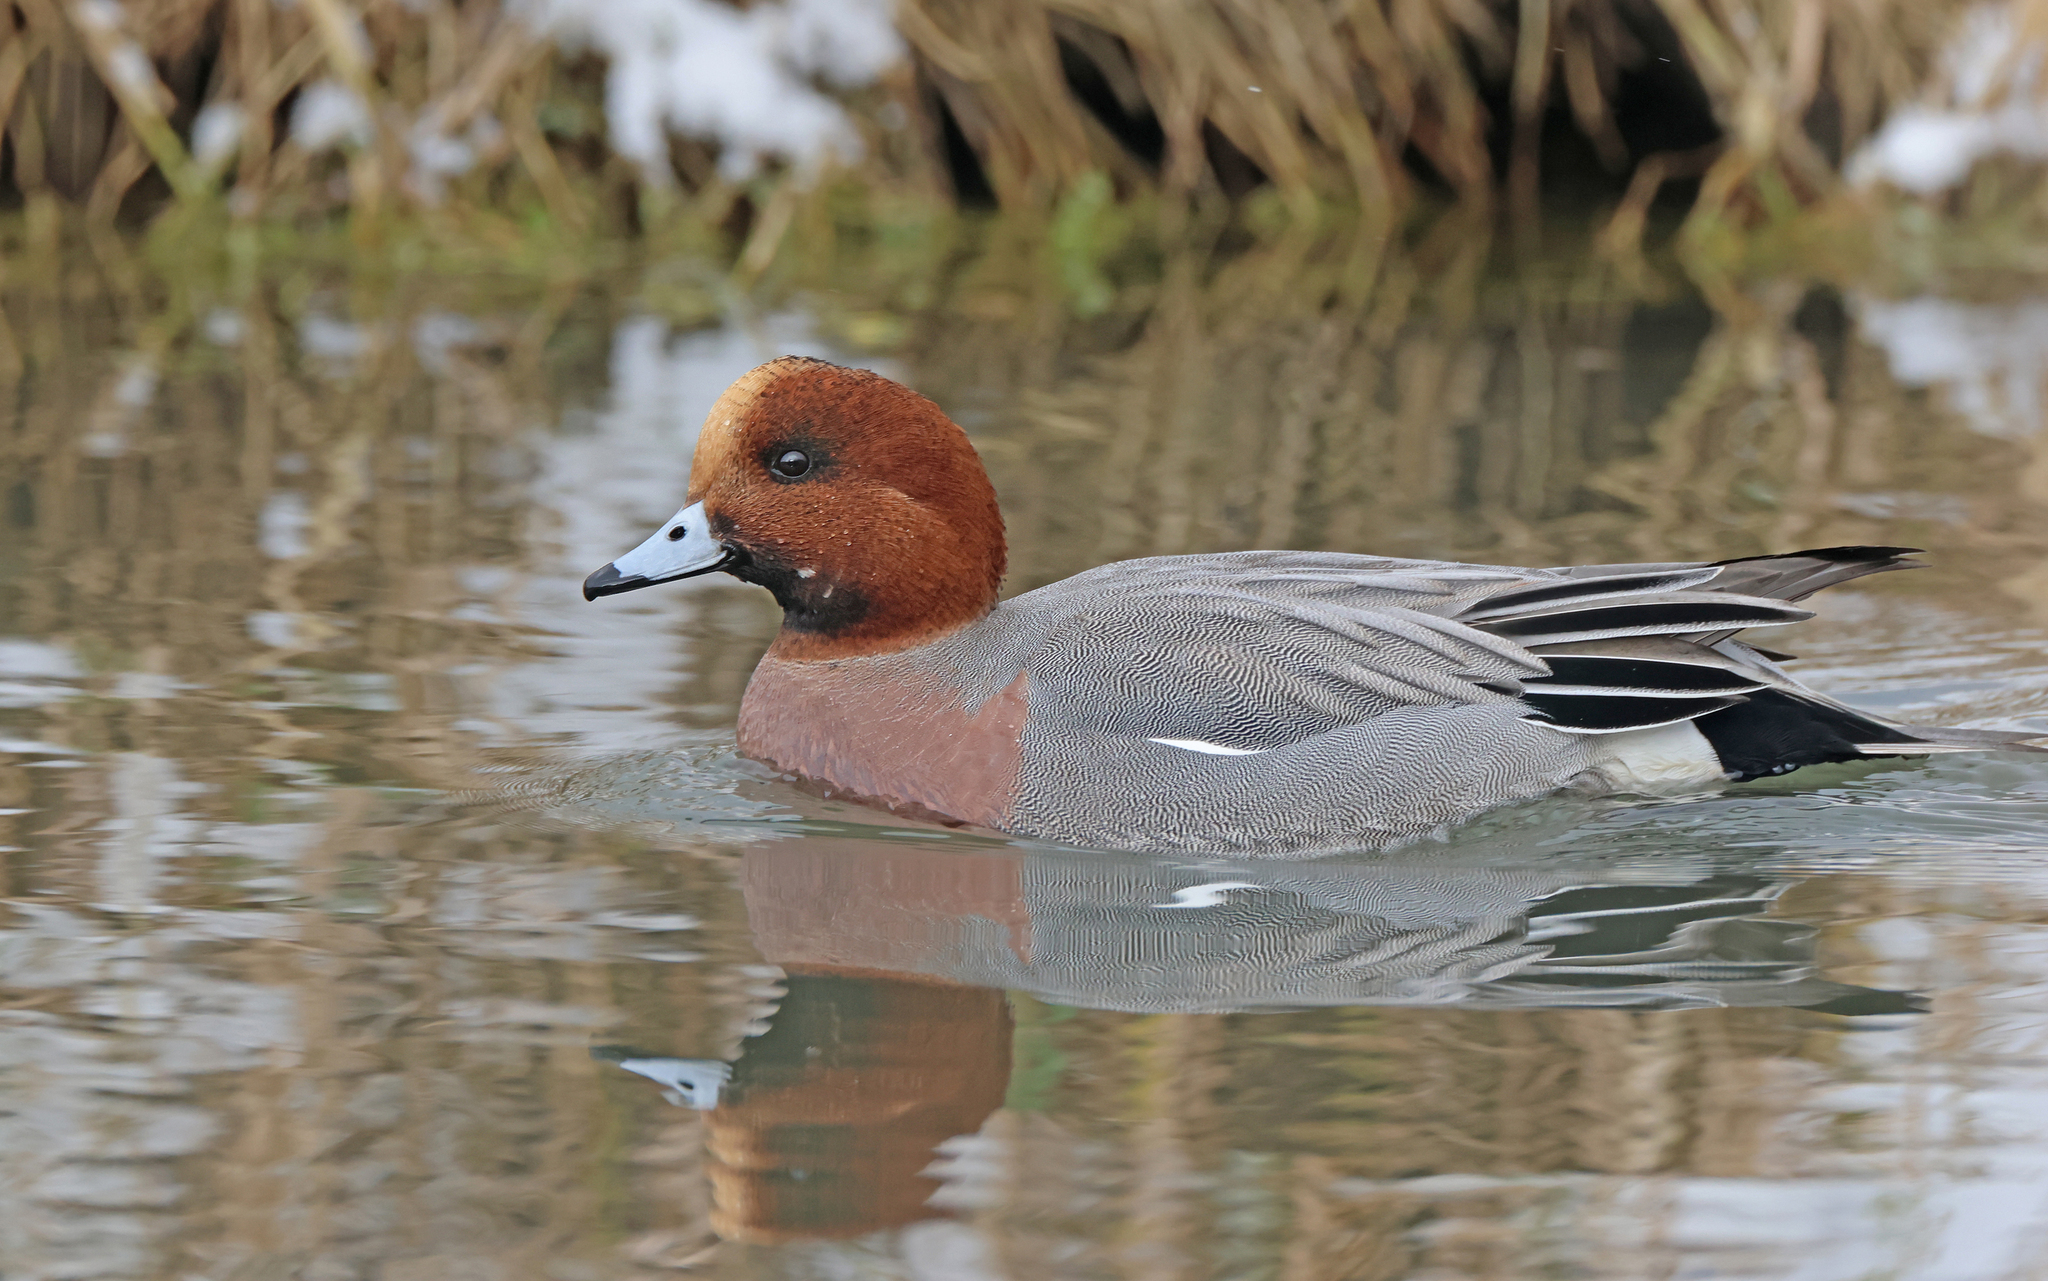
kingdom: Animalia
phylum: Chordata
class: Aves
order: Anseriformes
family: Anatidae
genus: Mareca
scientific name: Mareca penelope
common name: Eurasian wigeon
